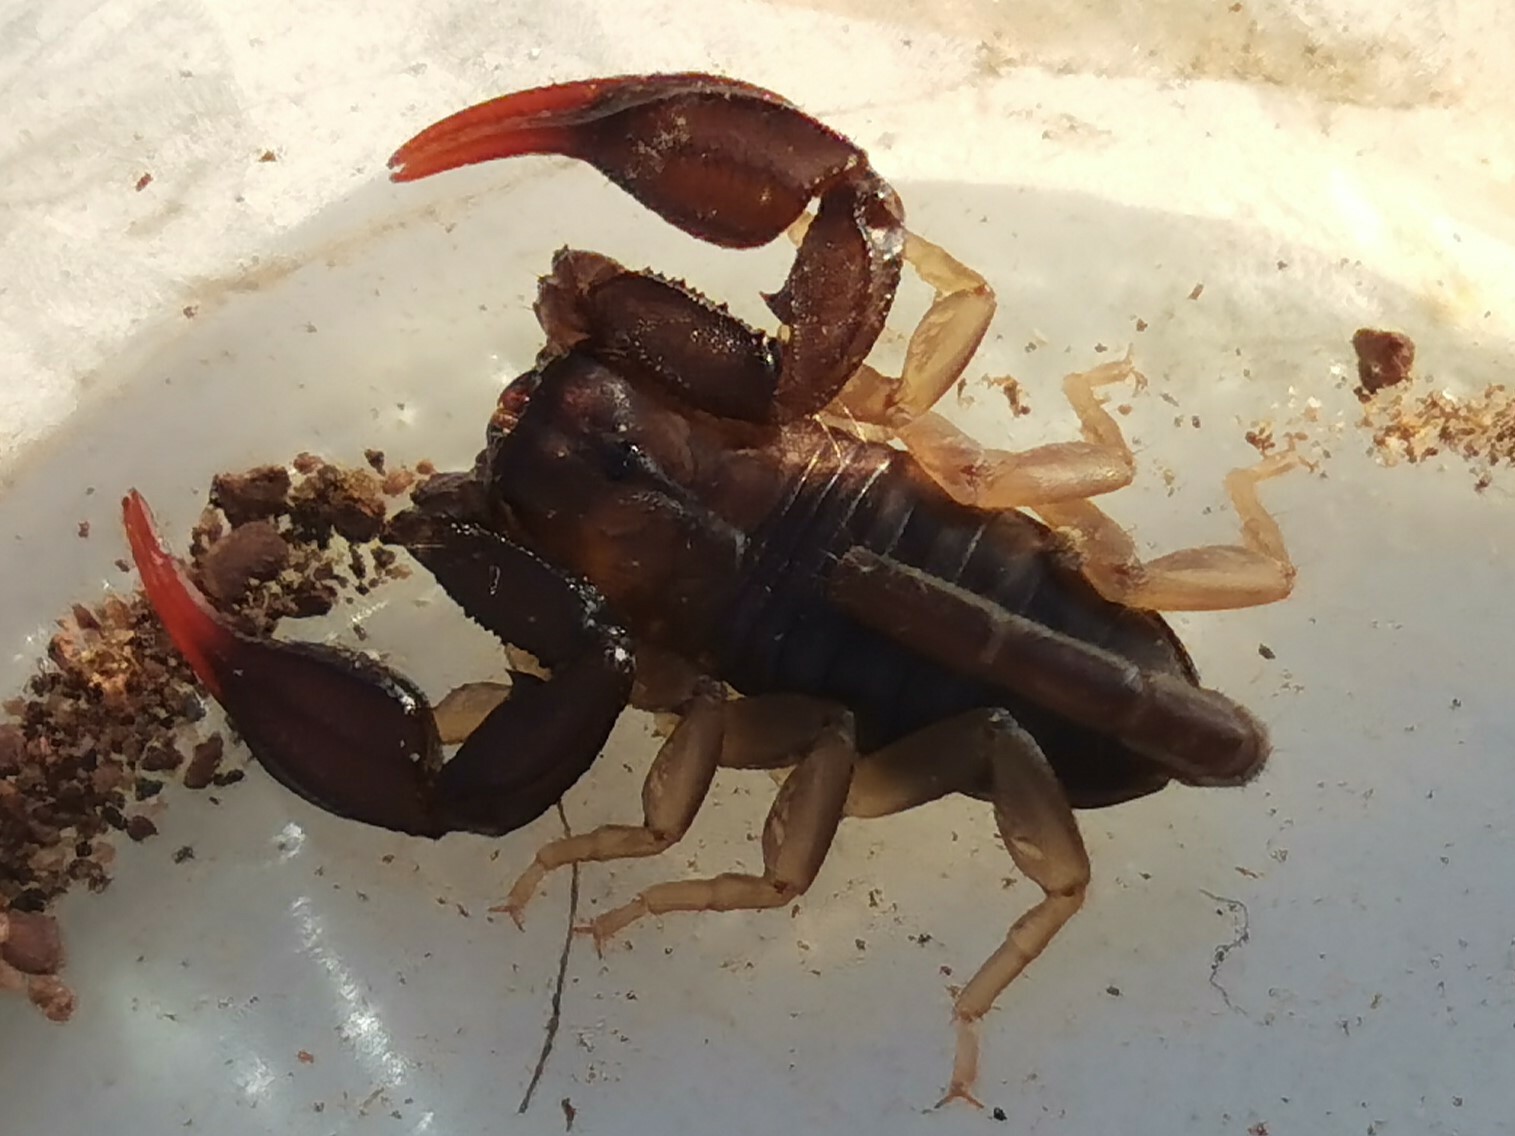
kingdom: Animalia
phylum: Arthropoda
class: Arachnida
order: Scorpiones
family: Euscorpiidae
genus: Euscorpius
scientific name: Euscorpius flavicaudis
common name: European yellow-tailed scorpion
